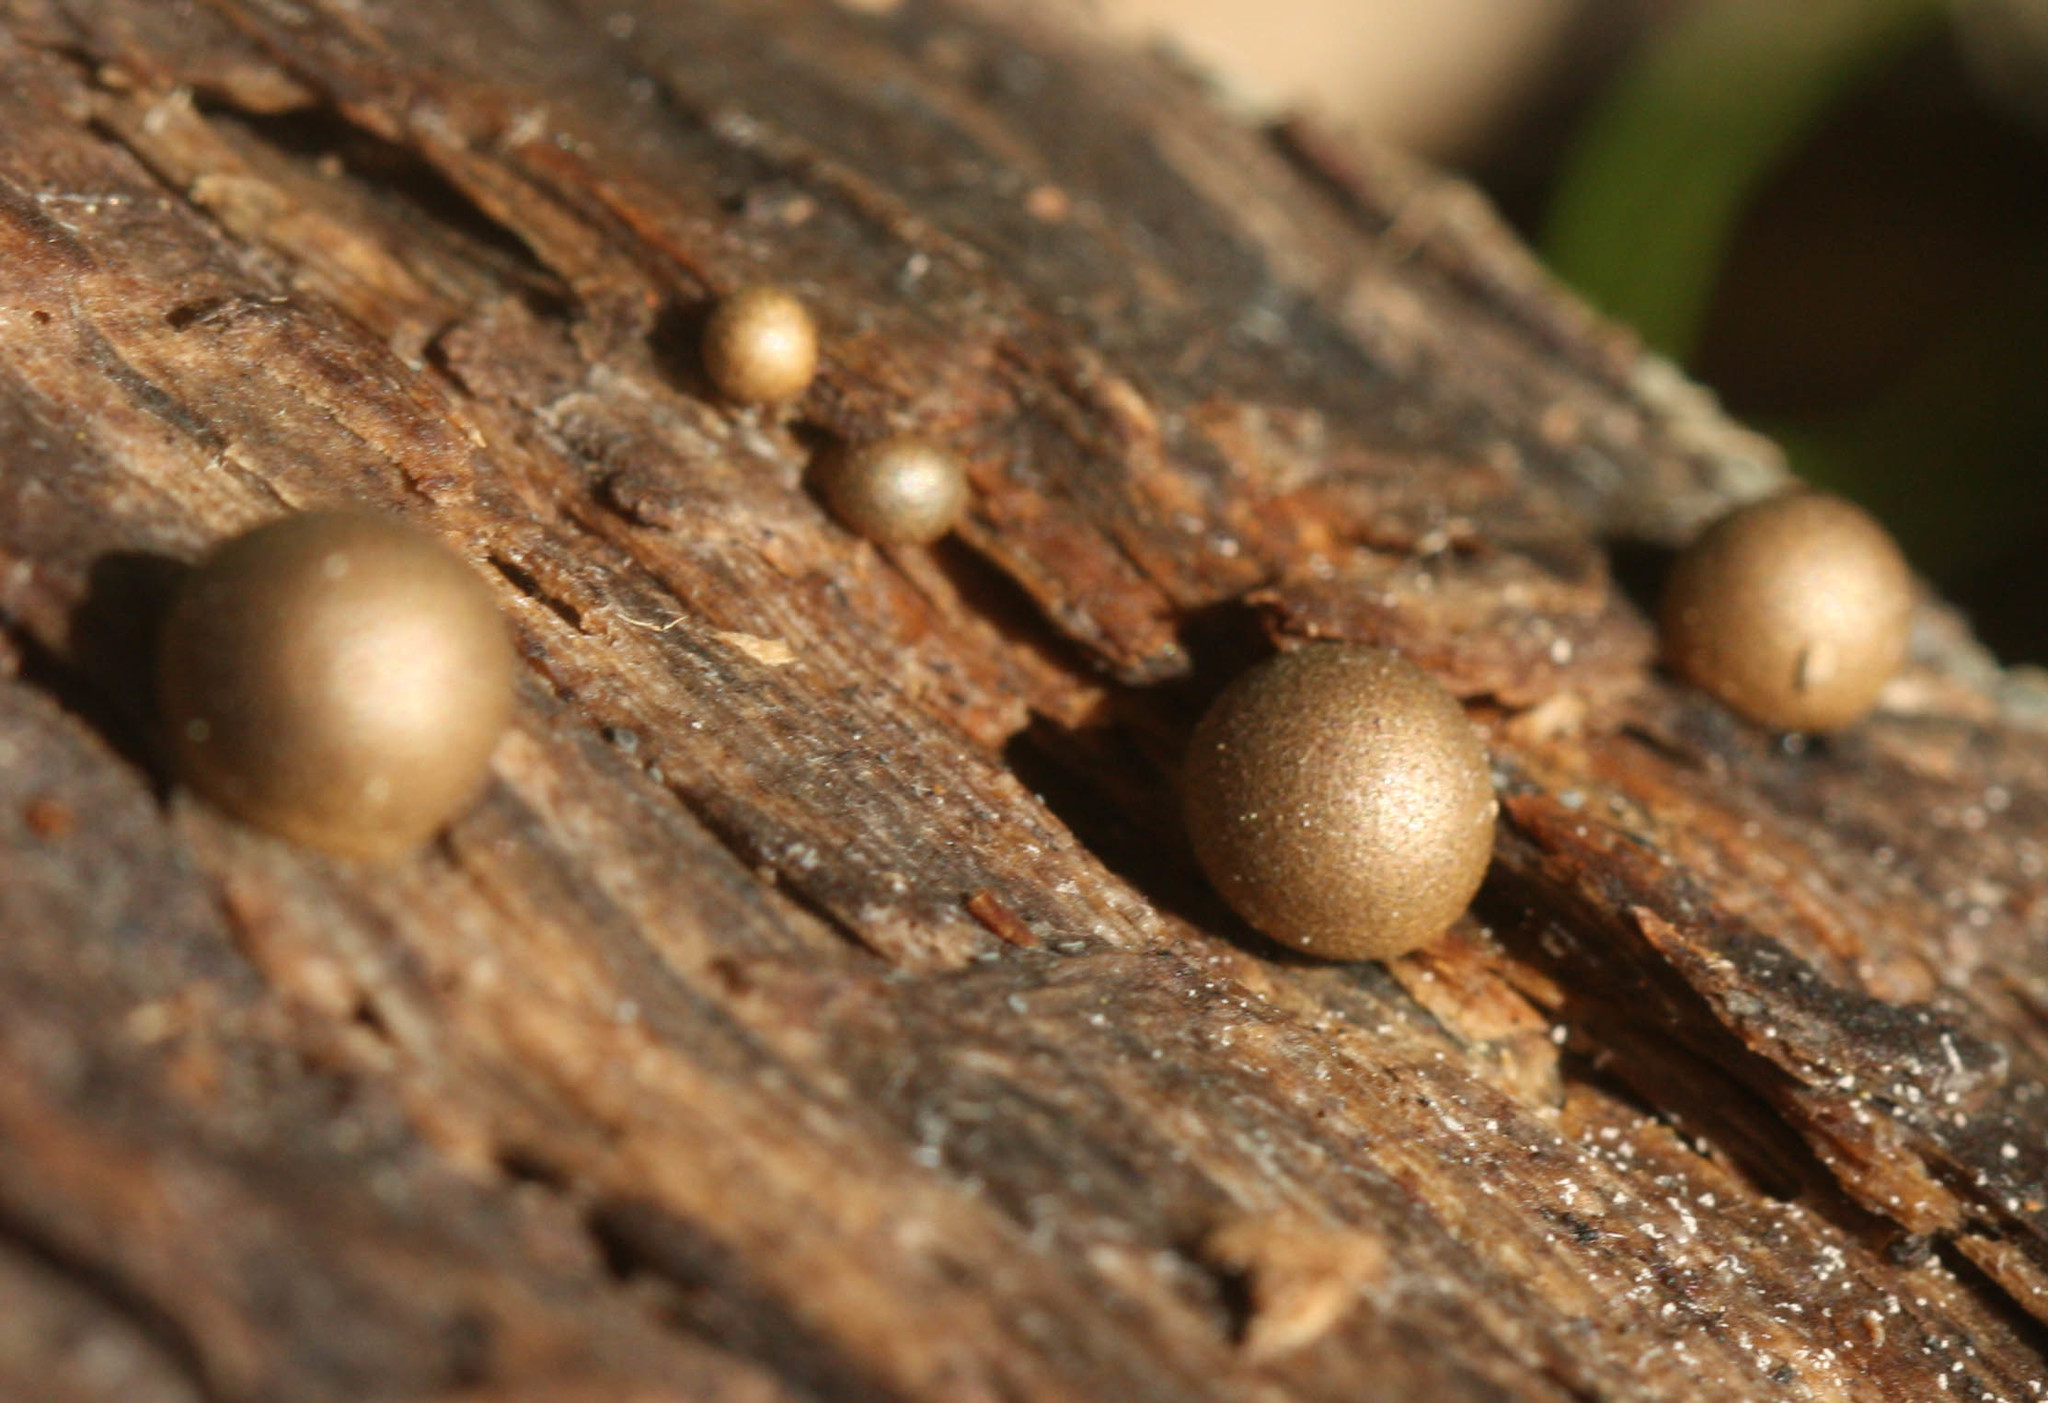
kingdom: Protozoa
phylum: Mycetozoa
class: Myxomycetes
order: Cribrariales
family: Tubiferaceae
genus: Lycogala
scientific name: Lycogala epidendrum
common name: Wolf's milk
